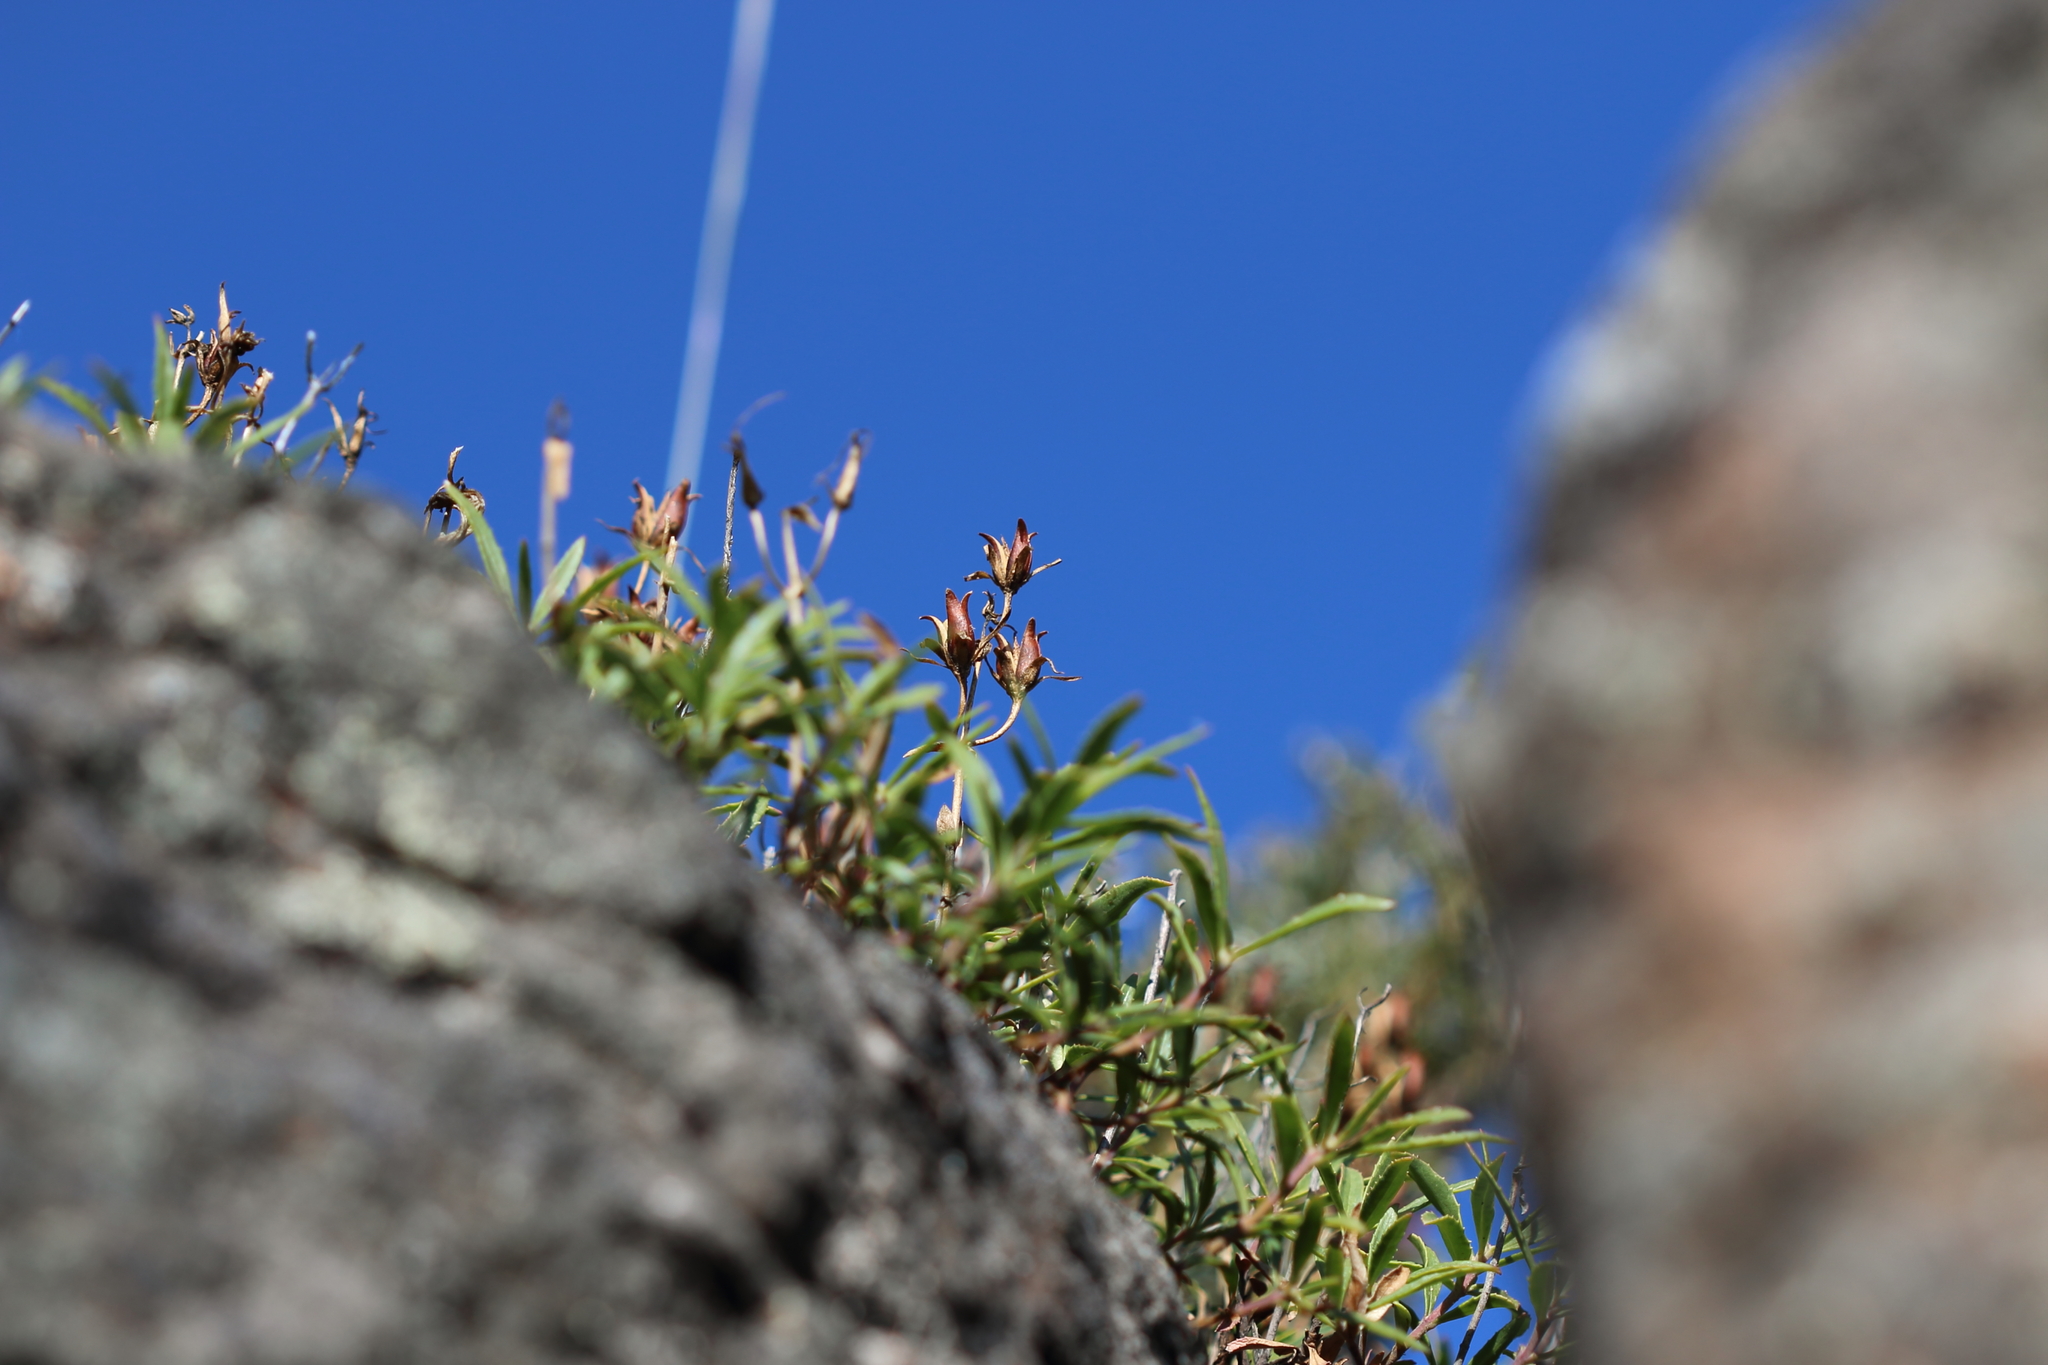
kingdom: Plantae
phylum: Tracheophyta
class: Magnoliopsida
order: Lamiales
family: Plantaginaceae
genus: Penstemon
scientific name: Penstemon fruticosus
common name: Bush penstemon
